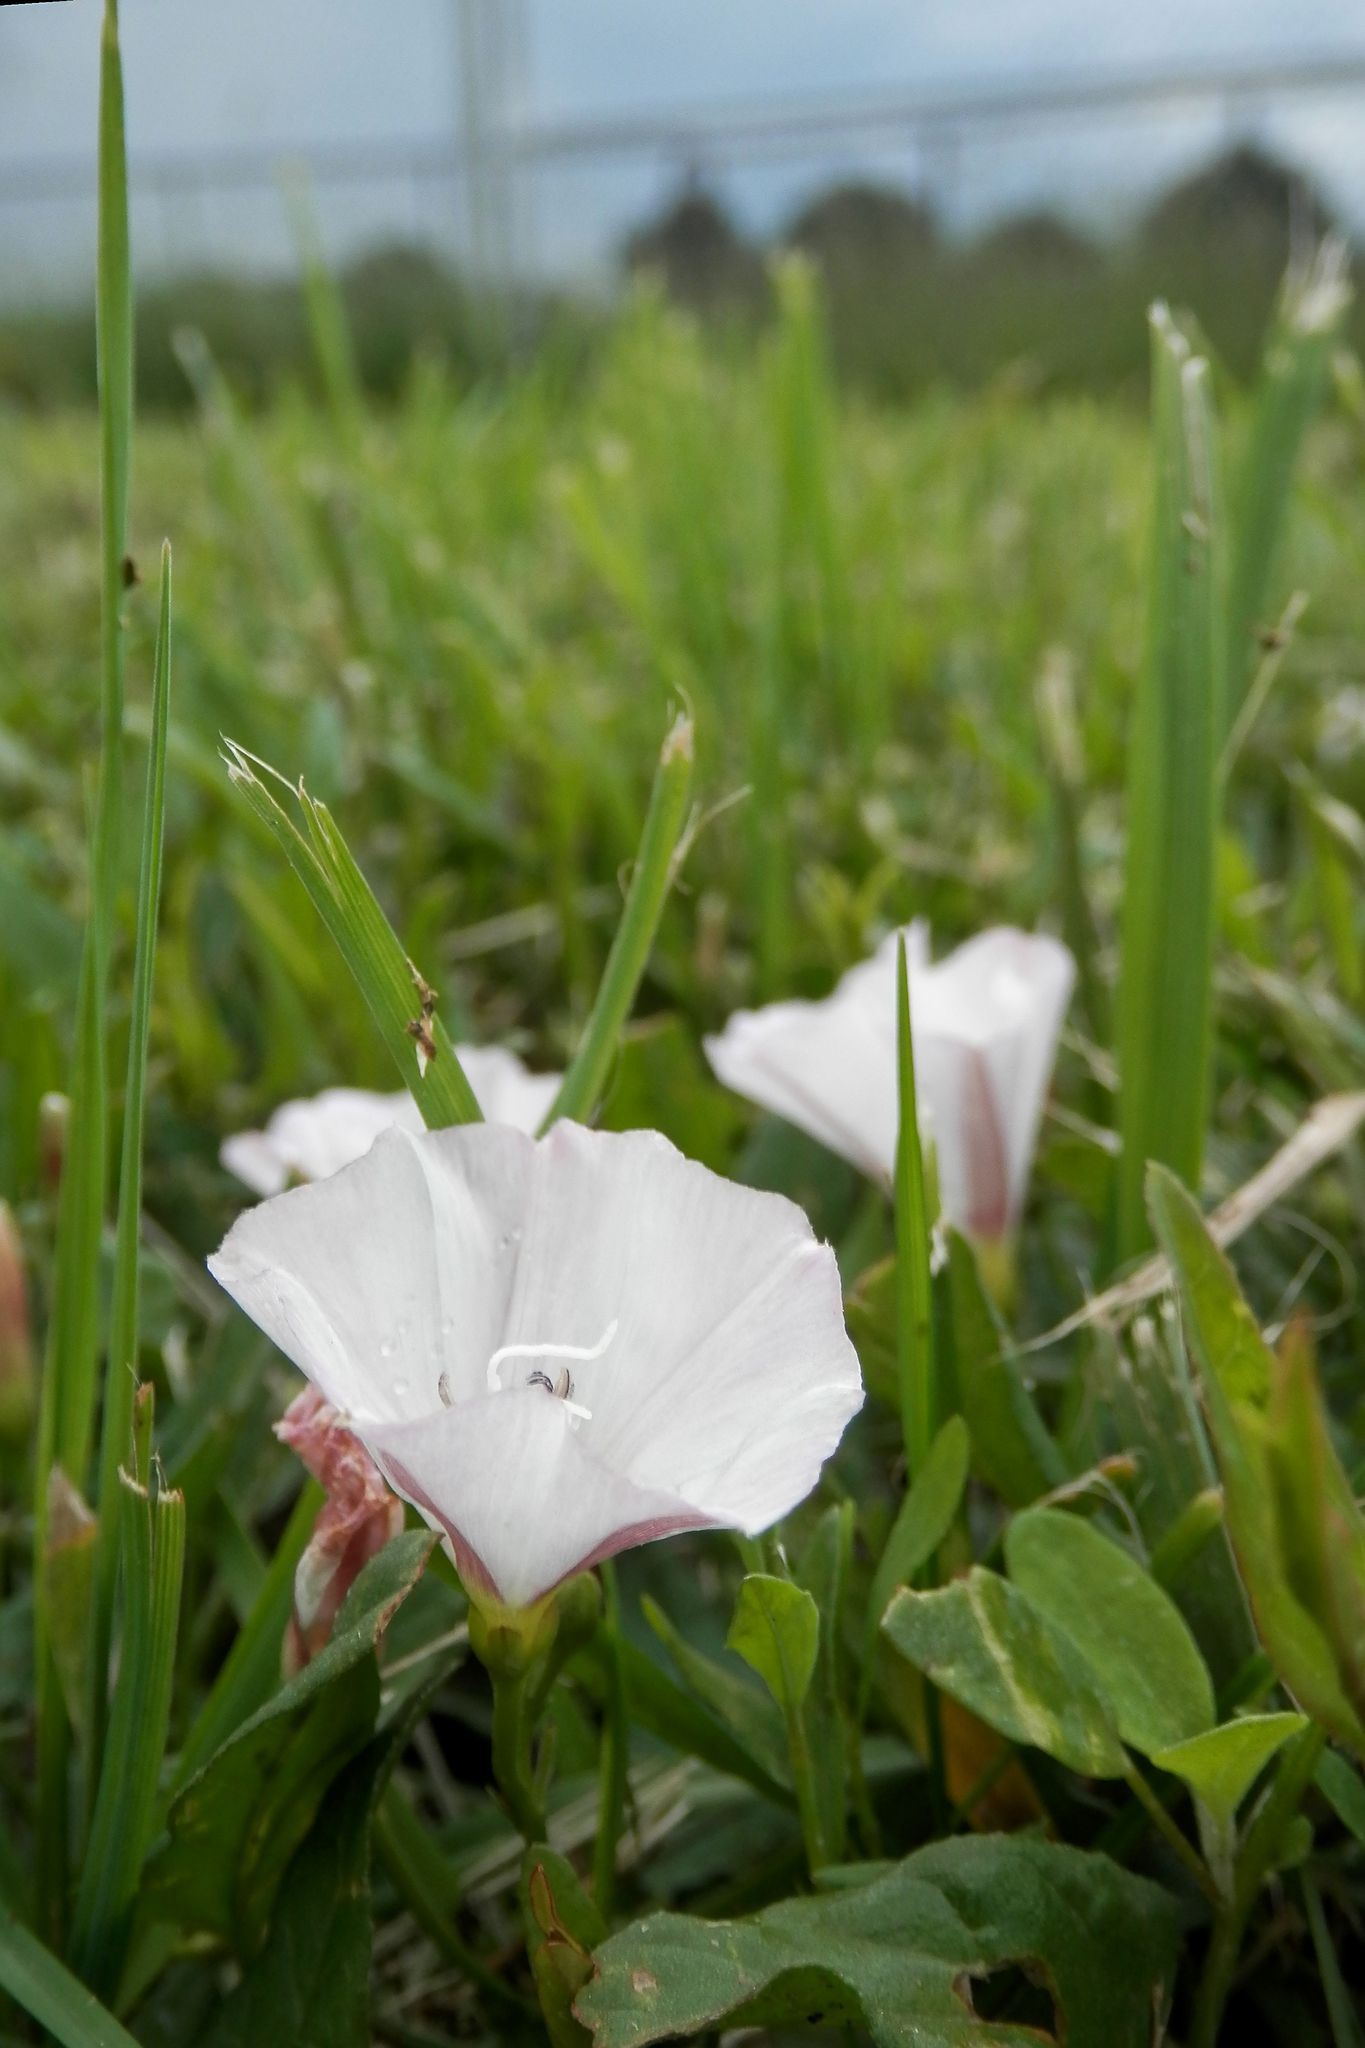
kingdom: Plantae
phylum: Tracheophyta
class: Magnoliopsida
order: Solanales
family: Convolvulaceae
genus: Convolvulus
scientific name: Convolvulus arvensis
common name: Field bindweed
